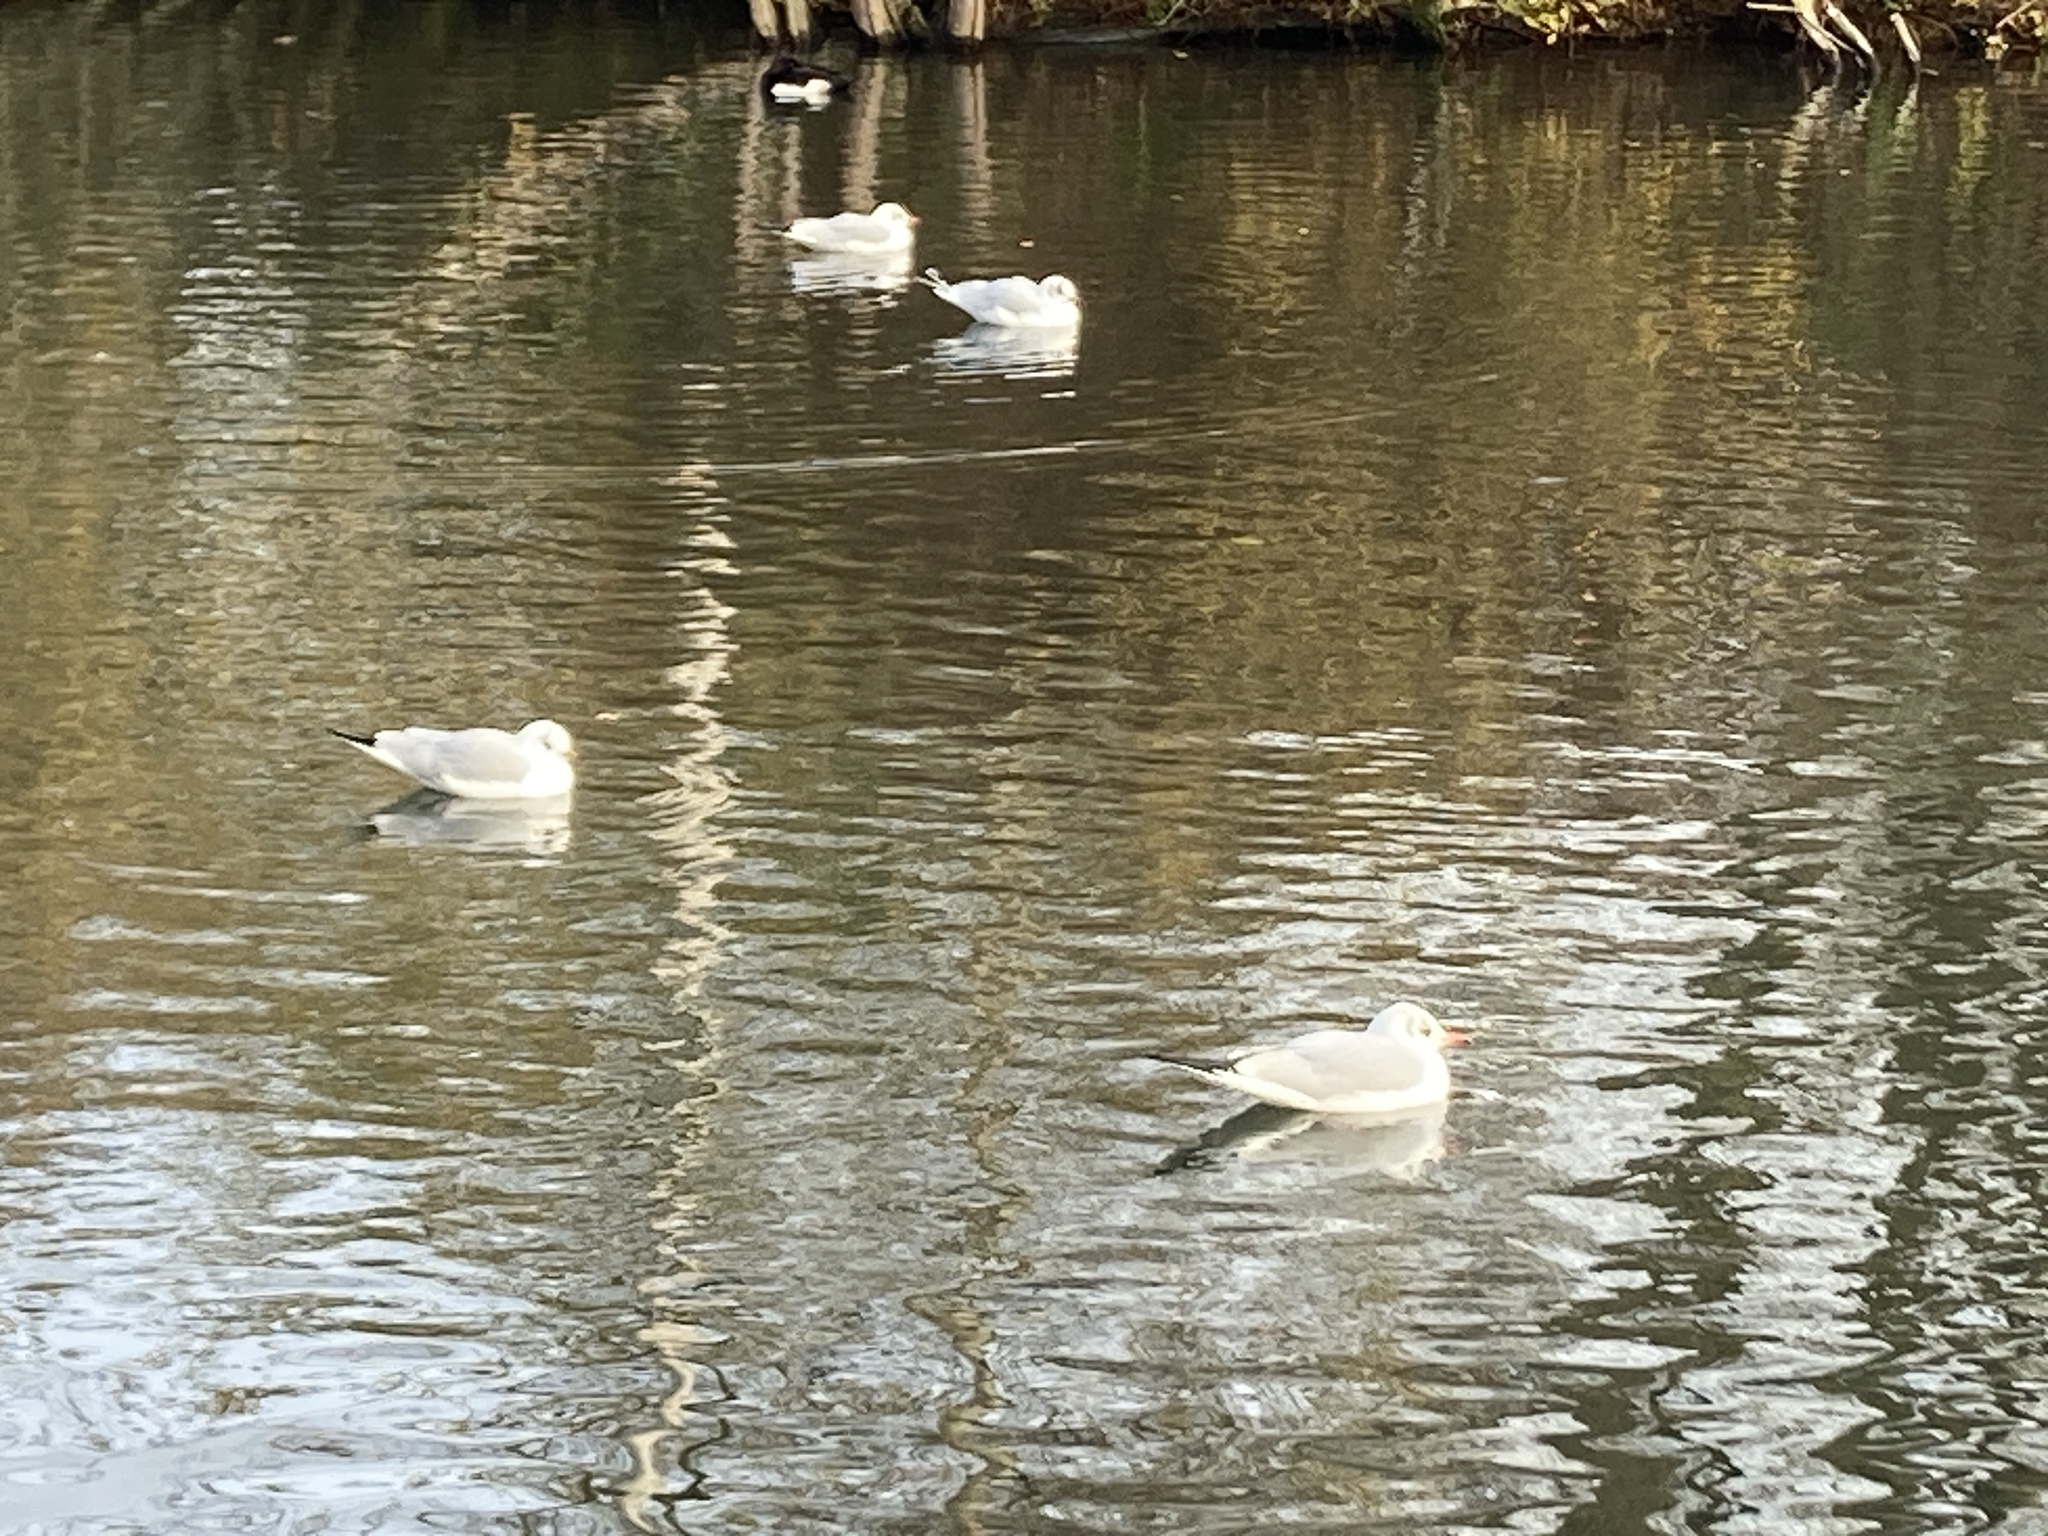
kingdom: Animalia
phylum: Chordata
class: Aves
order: Charadriiformes
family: Laridae
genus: Chroicocephalus
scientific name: Chroicocephalus ridibundus
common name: Black-headed gull
